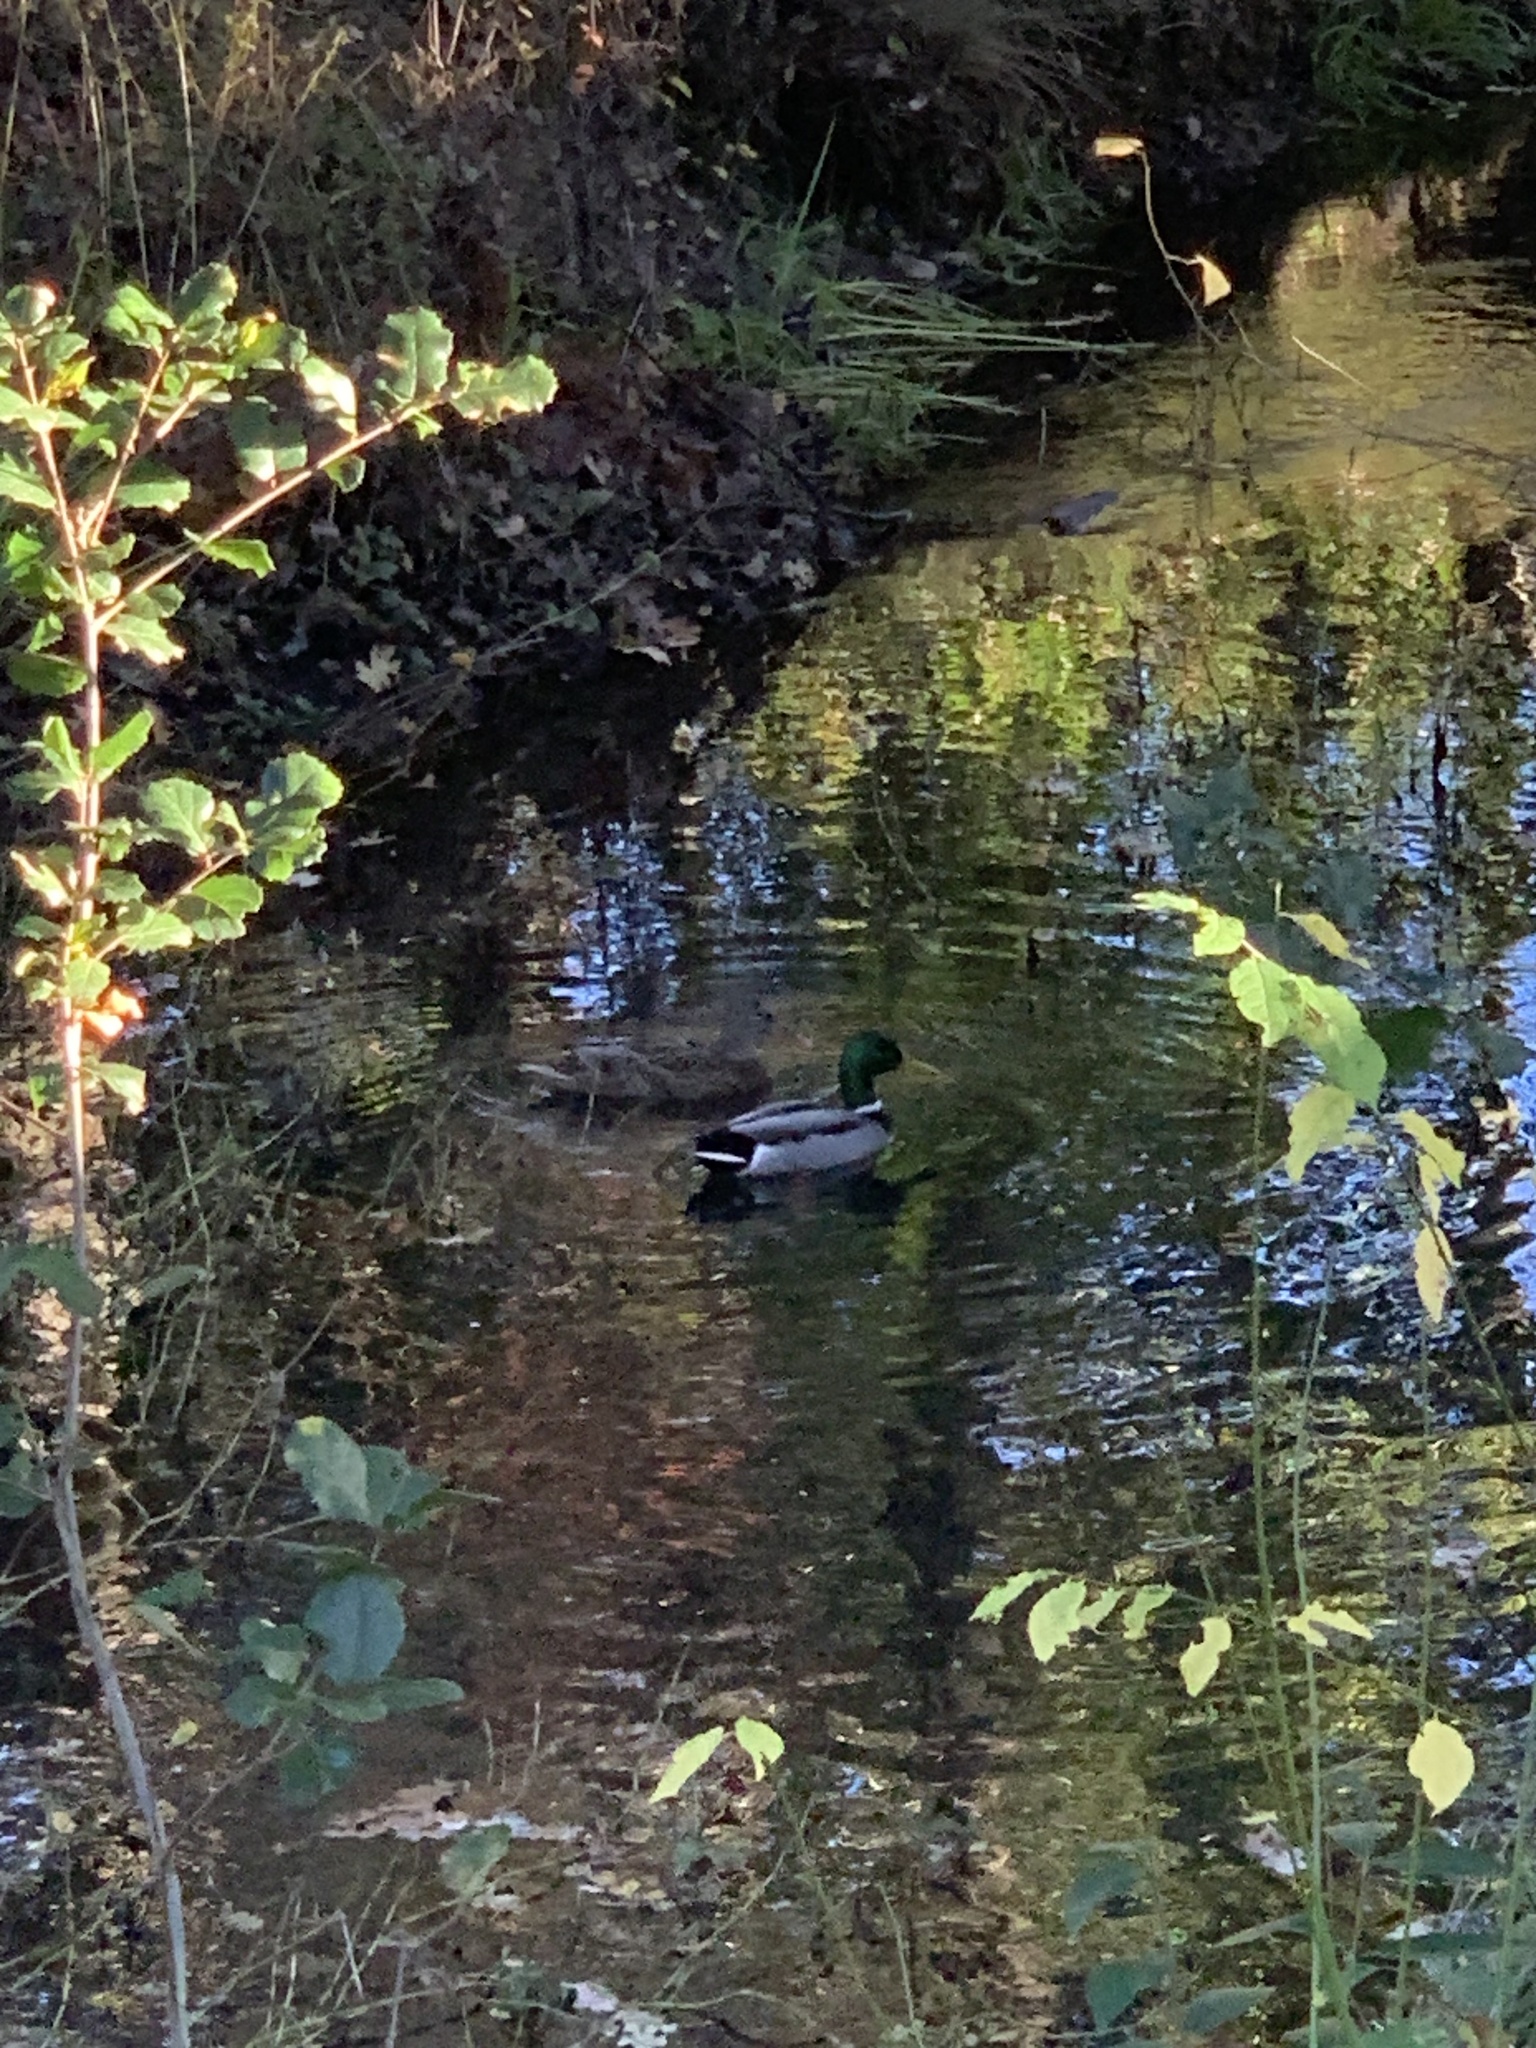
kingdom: Animalia
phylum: Chordata
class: Aves
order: Anseriformes
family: Anatidae
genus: Anas
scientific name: Anas platyrhynchos
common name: Mallard
